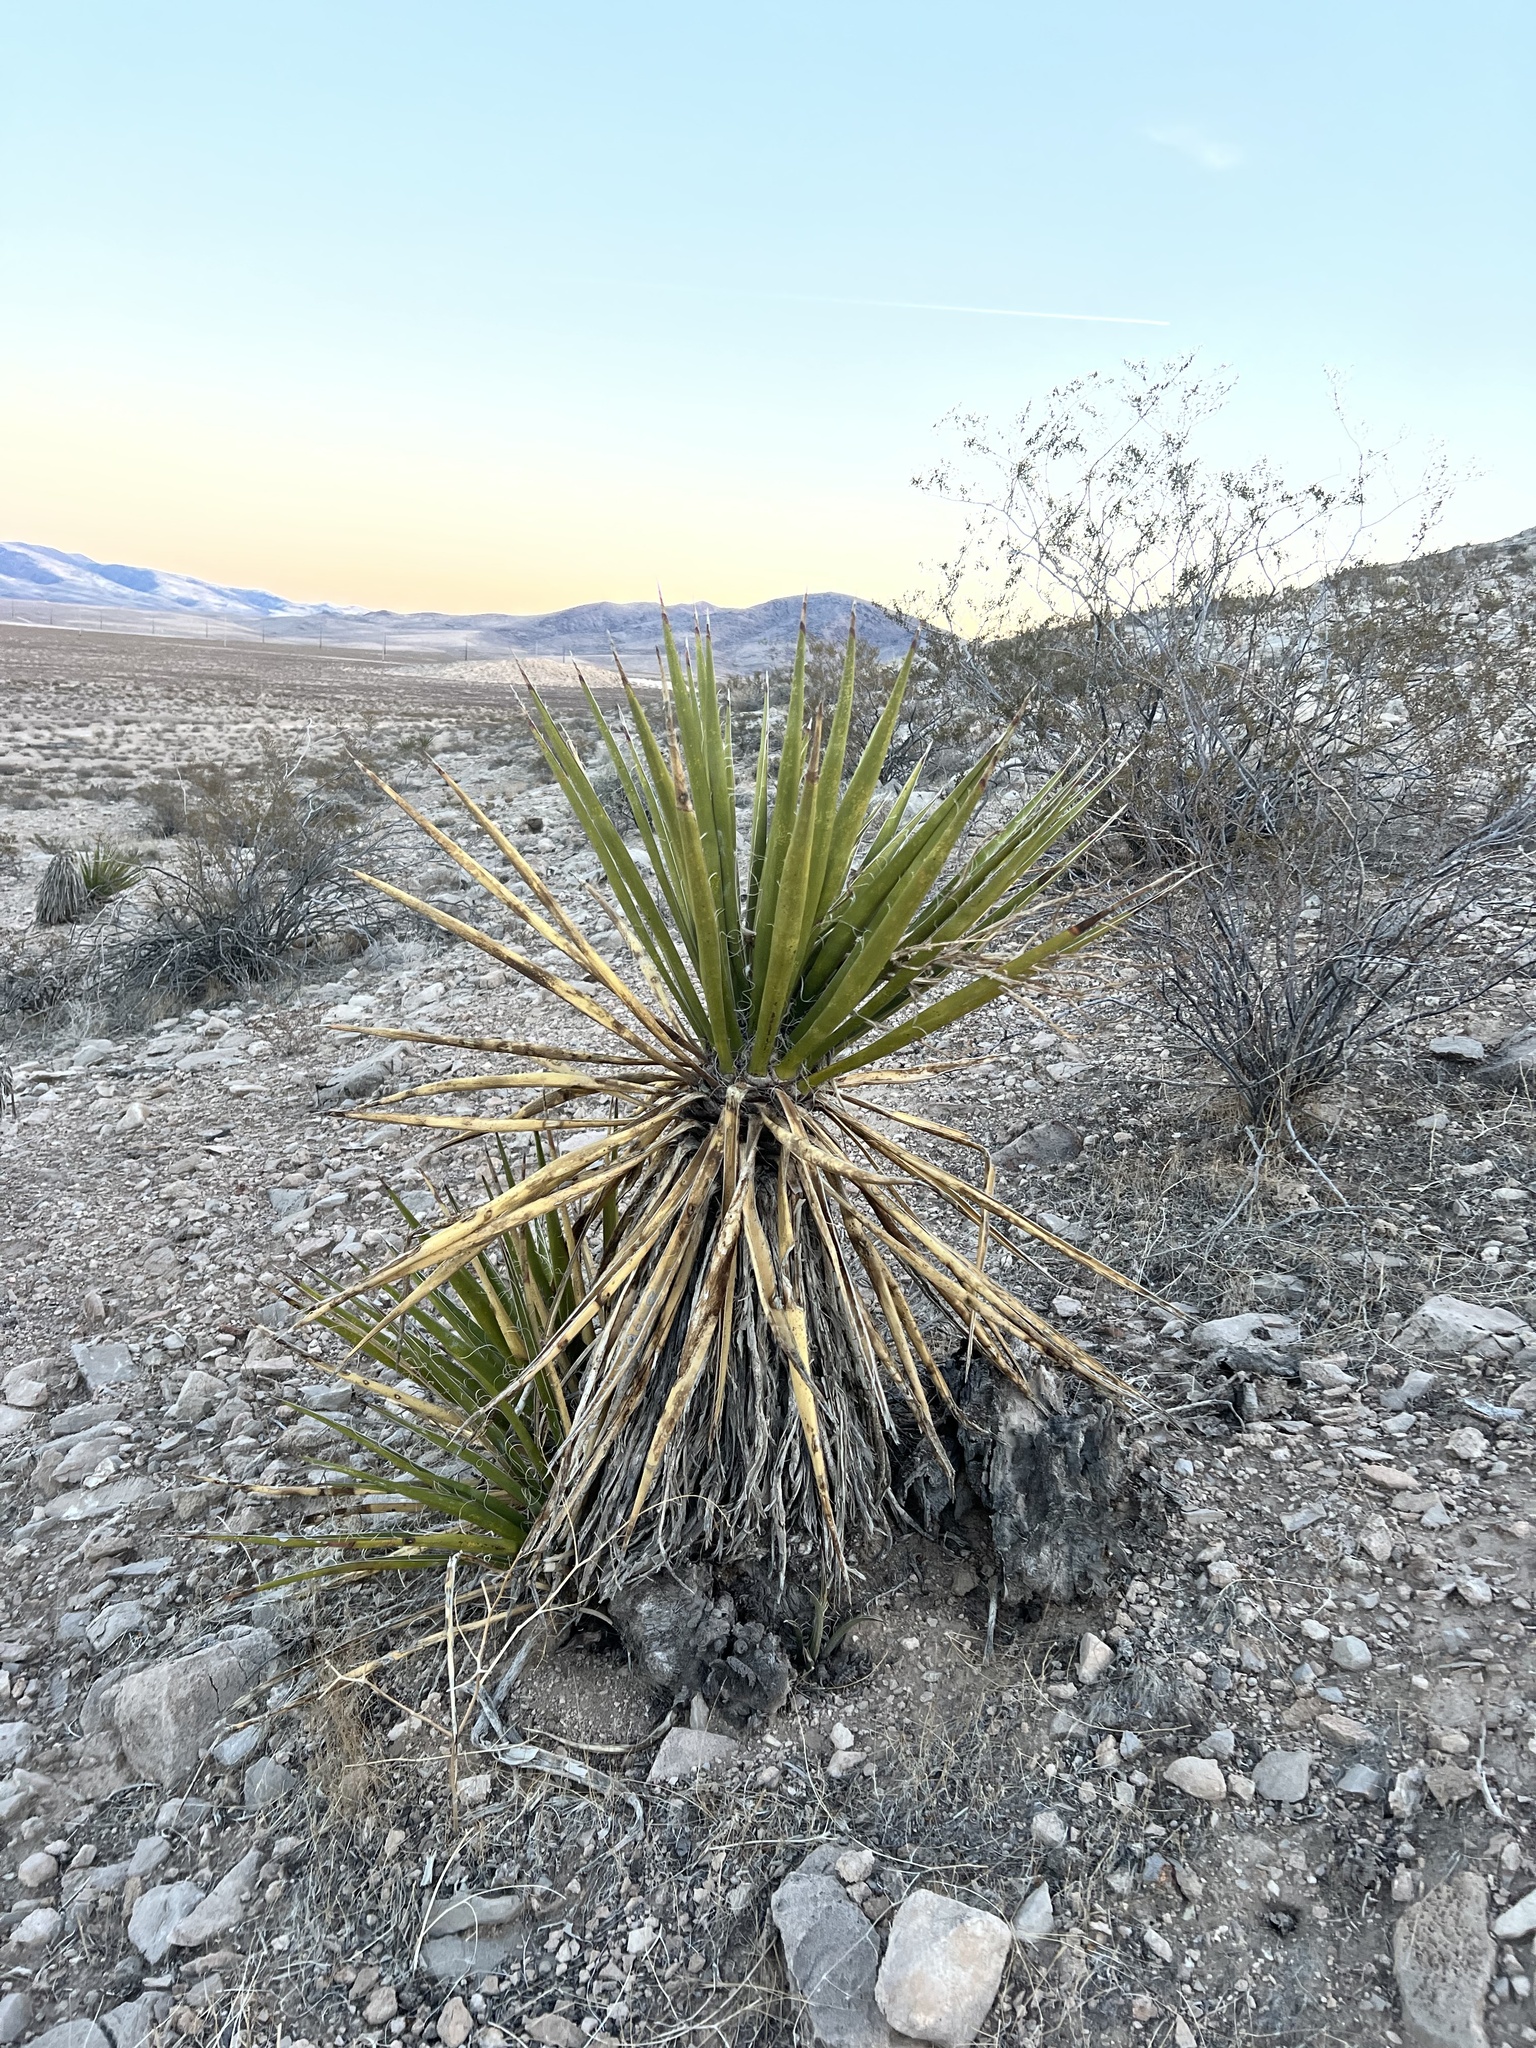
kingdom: Plantae
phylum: Tracheophyta
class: Liliopsida
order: Asparagales
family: Asparagaceae
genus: Yucca
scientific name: Yucca schidigera
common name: Mojave yucca
